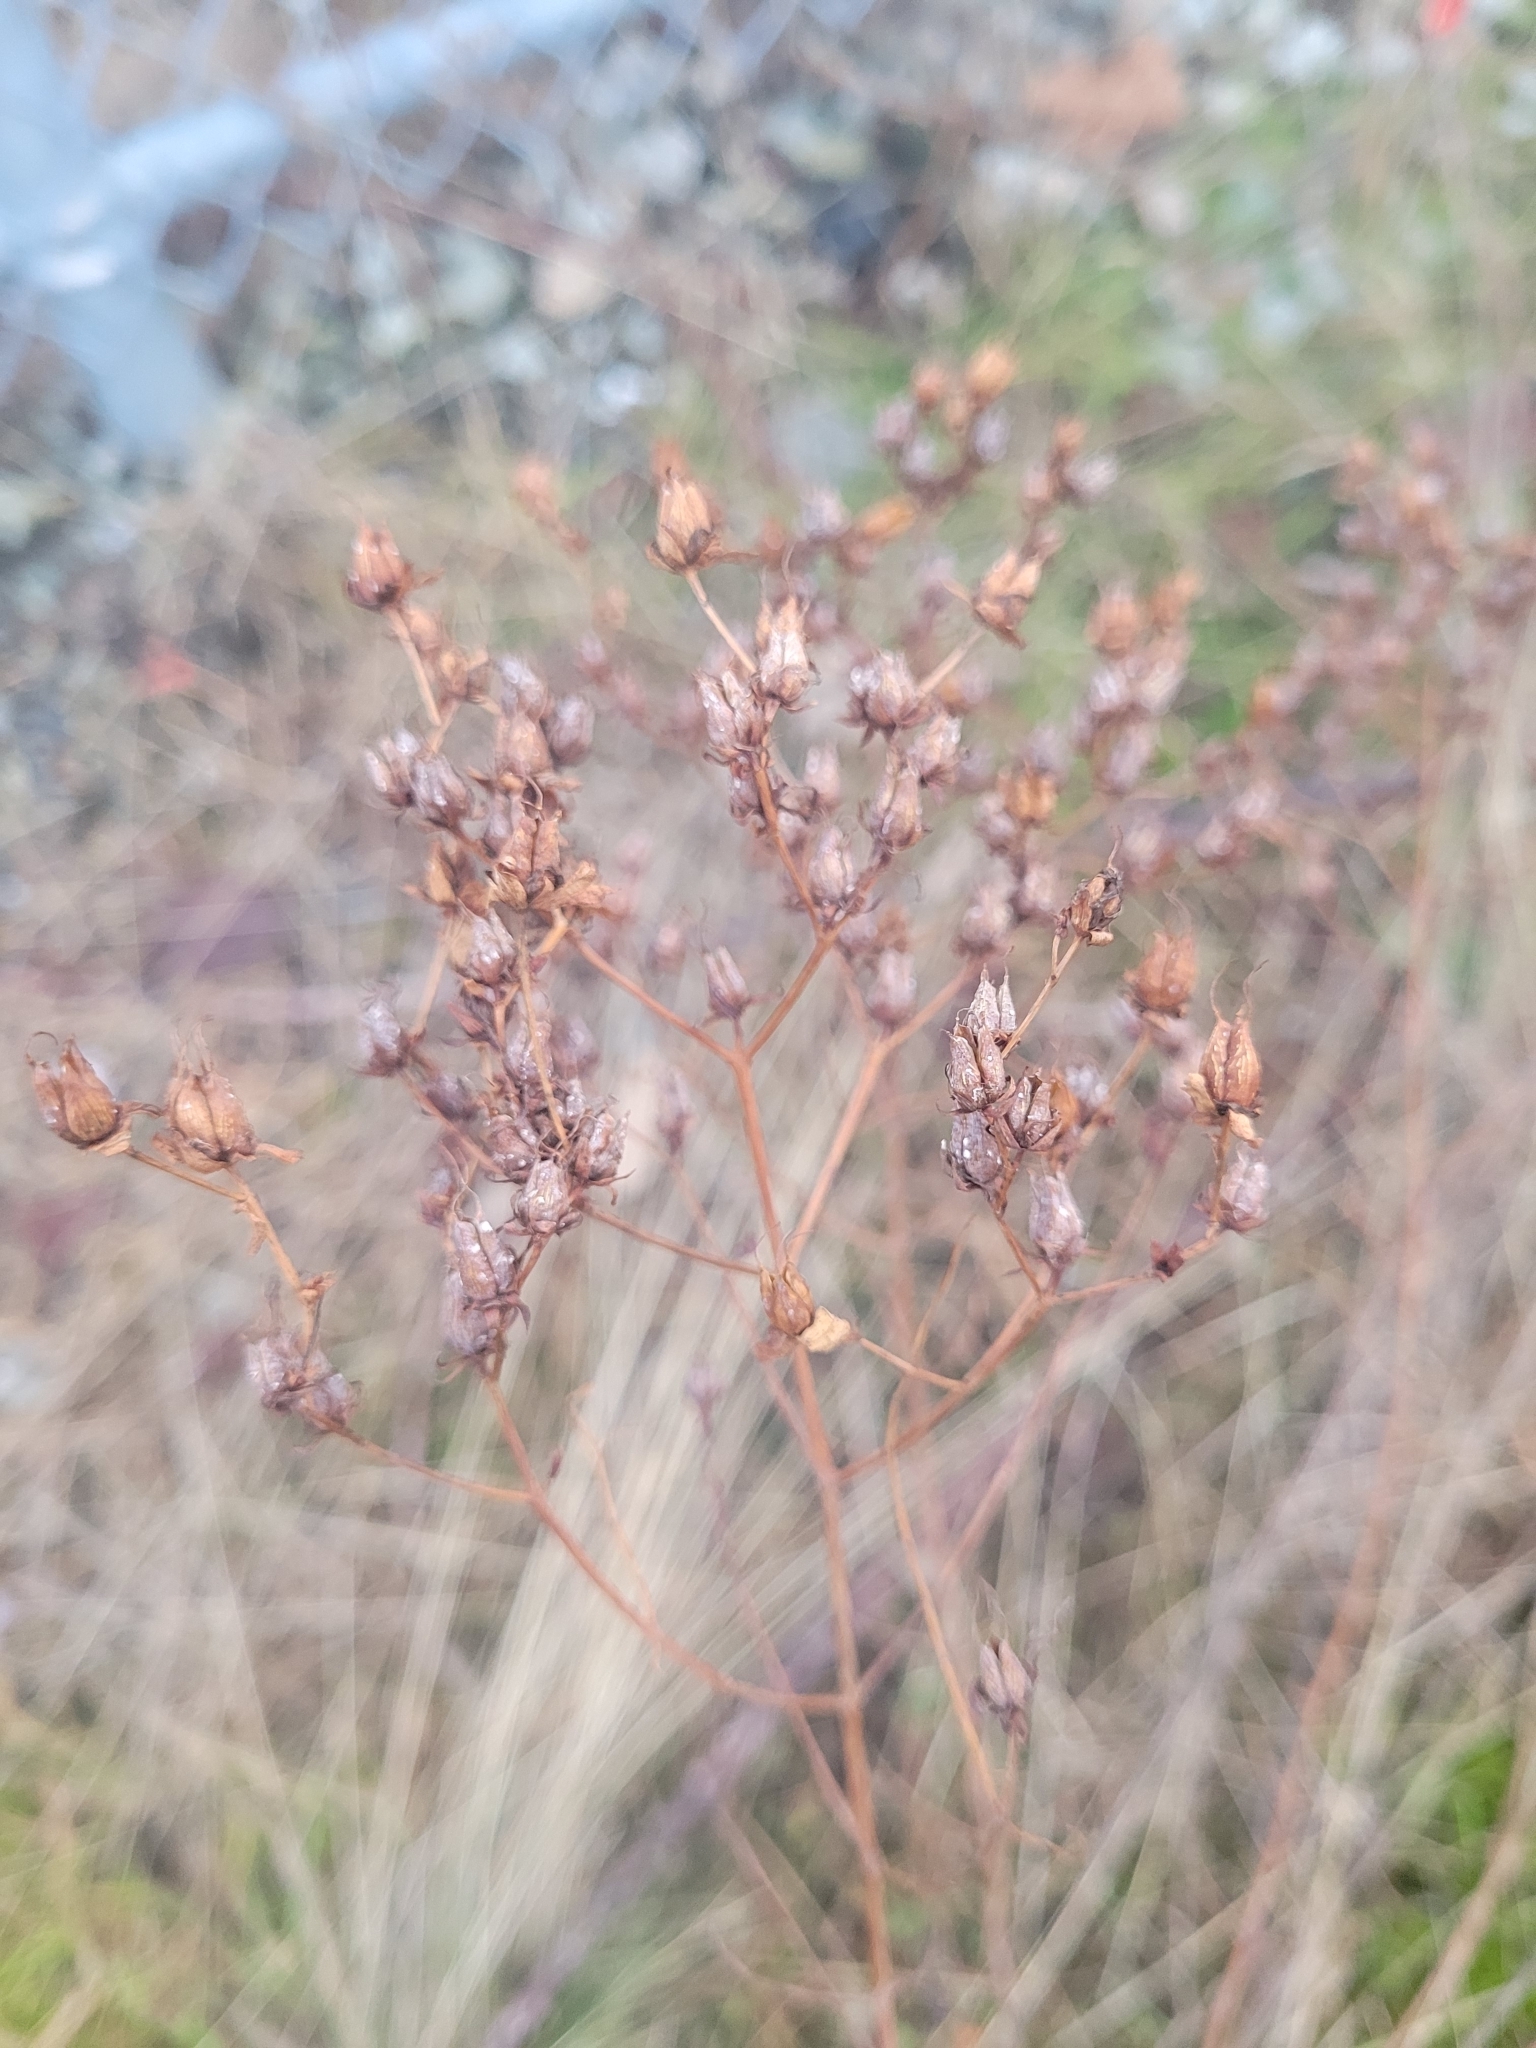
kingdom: Plantae
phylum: Tracheophyta
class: Magnoliopsida
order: Malpighiales
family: Hypericaceae
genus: Hypericum
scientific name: Hypericum perforatum
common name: Common st. johnswort
